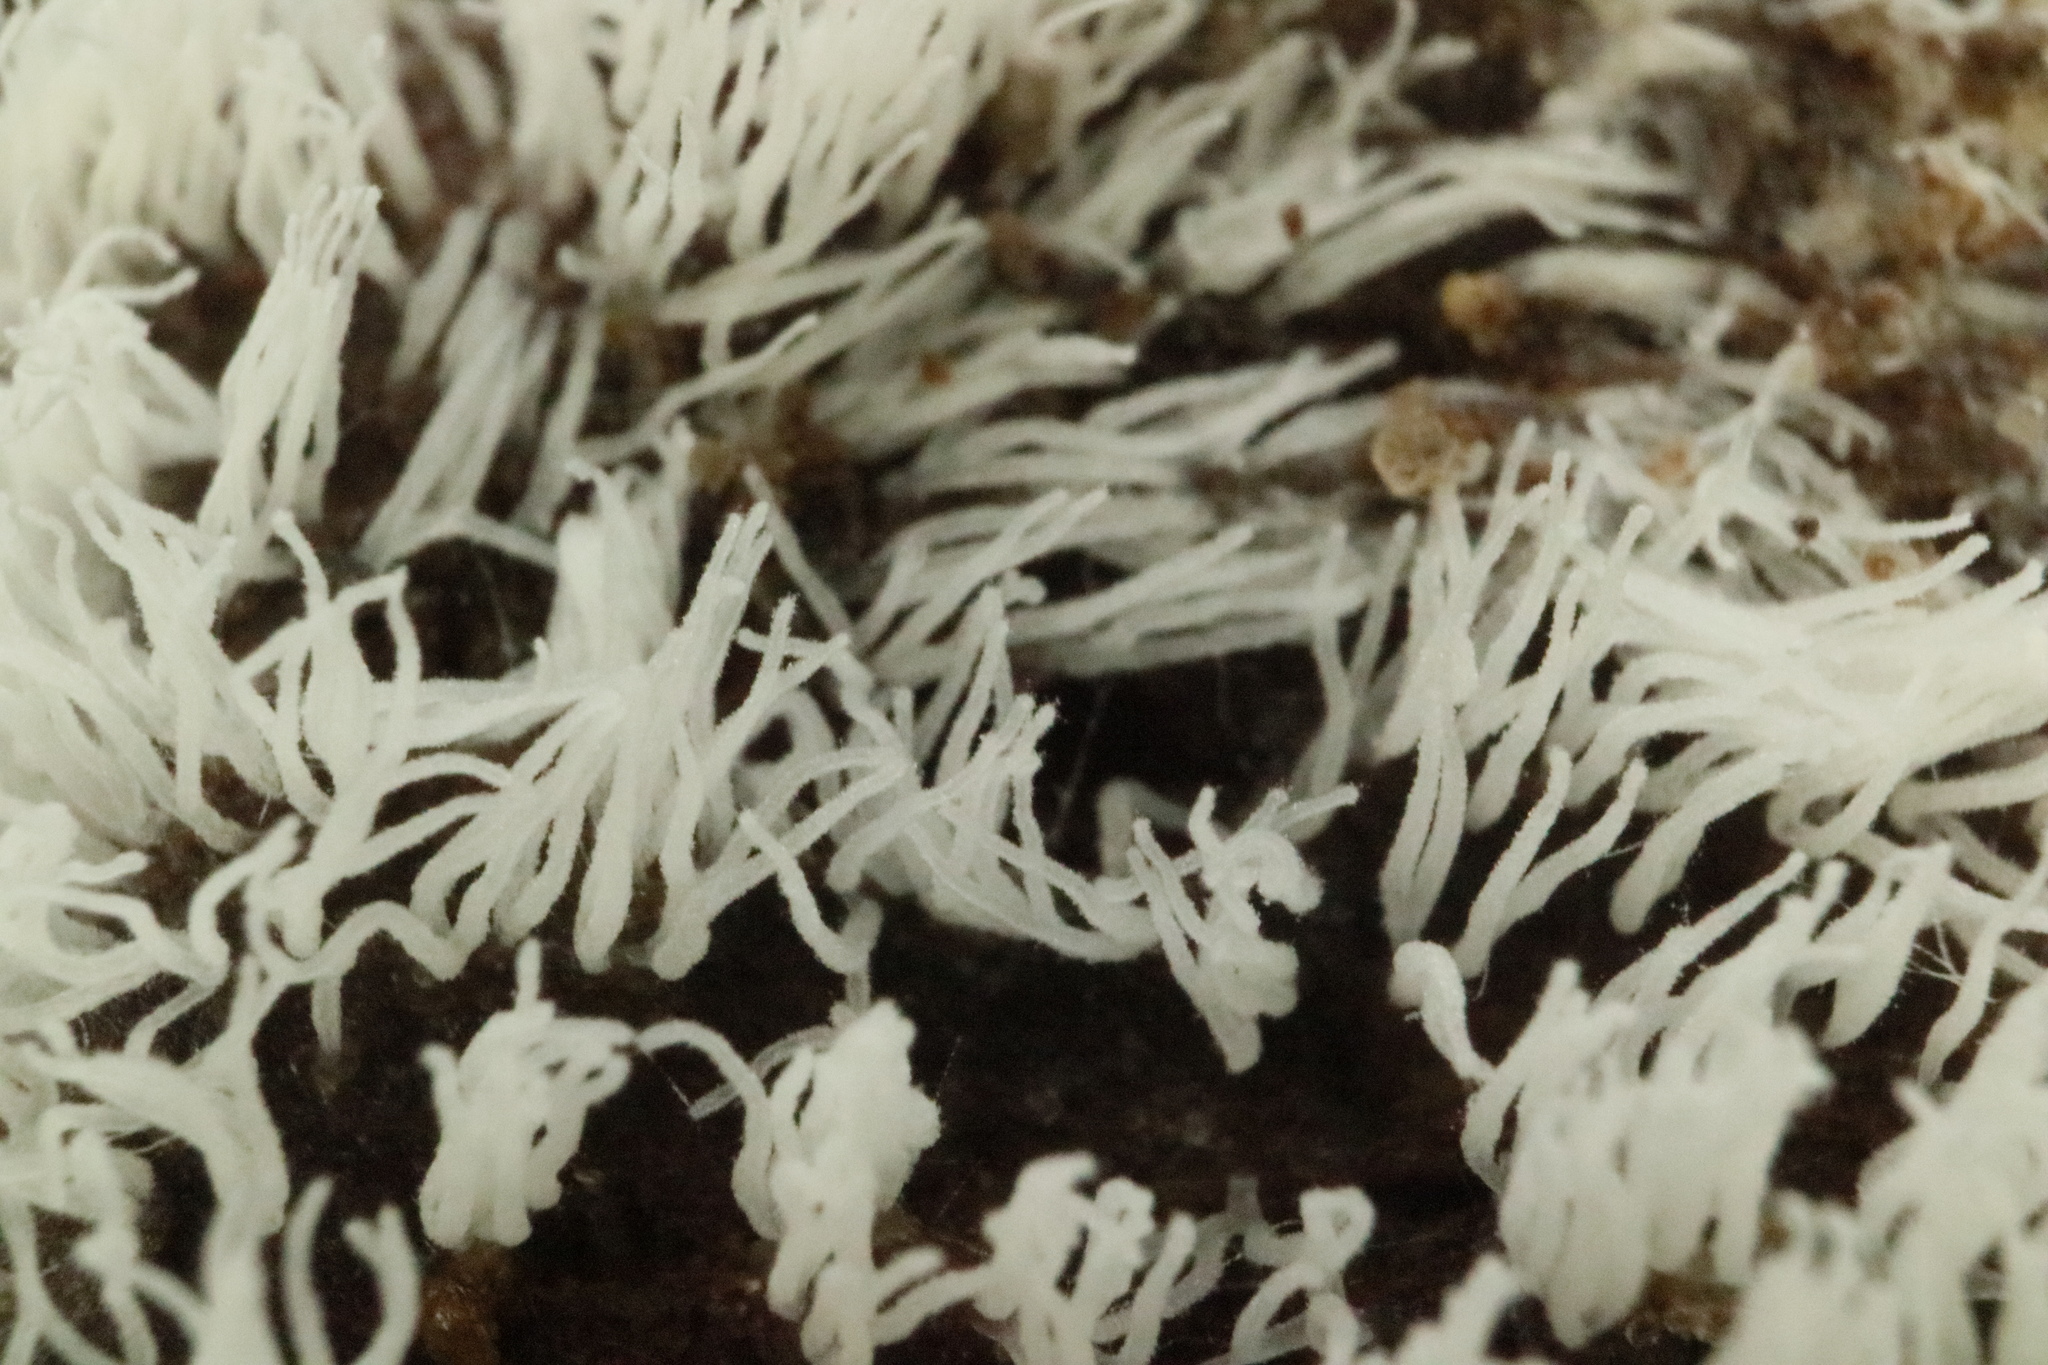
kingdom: Protozoa
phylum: Mycetozoa
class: Protosteliomycetes
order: Ceratiomyxales
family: Ceratiomyxaceae
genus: Ceratiomyxa
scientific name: Ceratiomyxa fruticulosa
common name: Honeycomb coral slime mold
